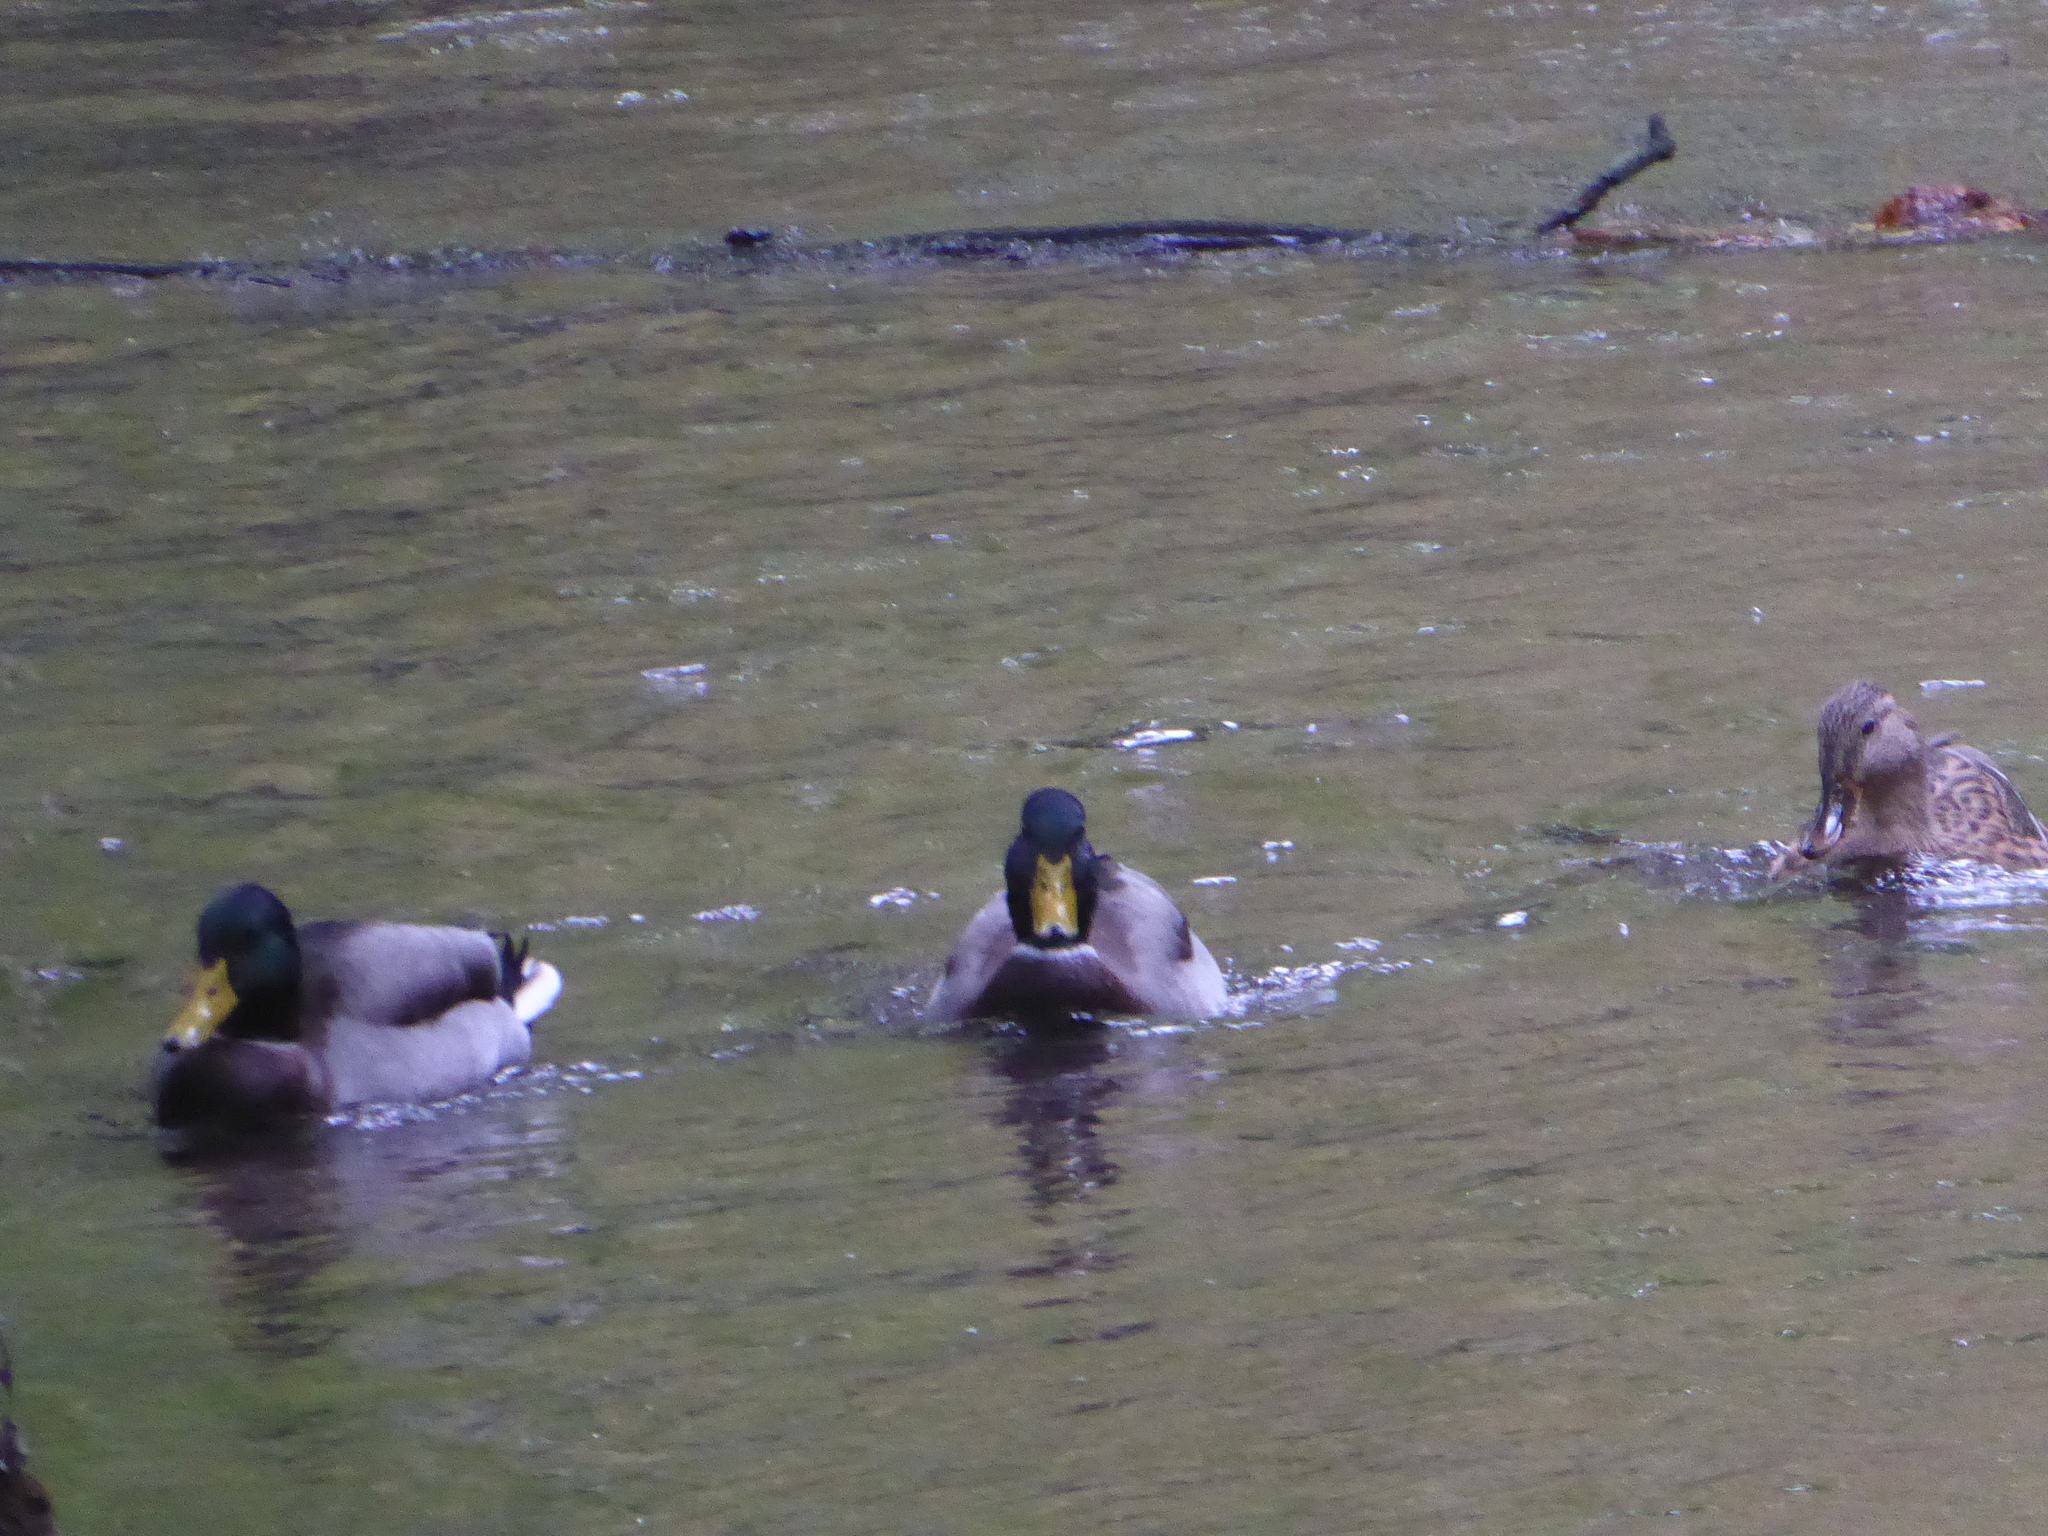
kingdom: Animalia
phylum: Chordata
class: Aves
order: Anseriformes
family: Anatidae
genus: Anas
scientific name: Anas platyrhynchos
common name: Mallard
